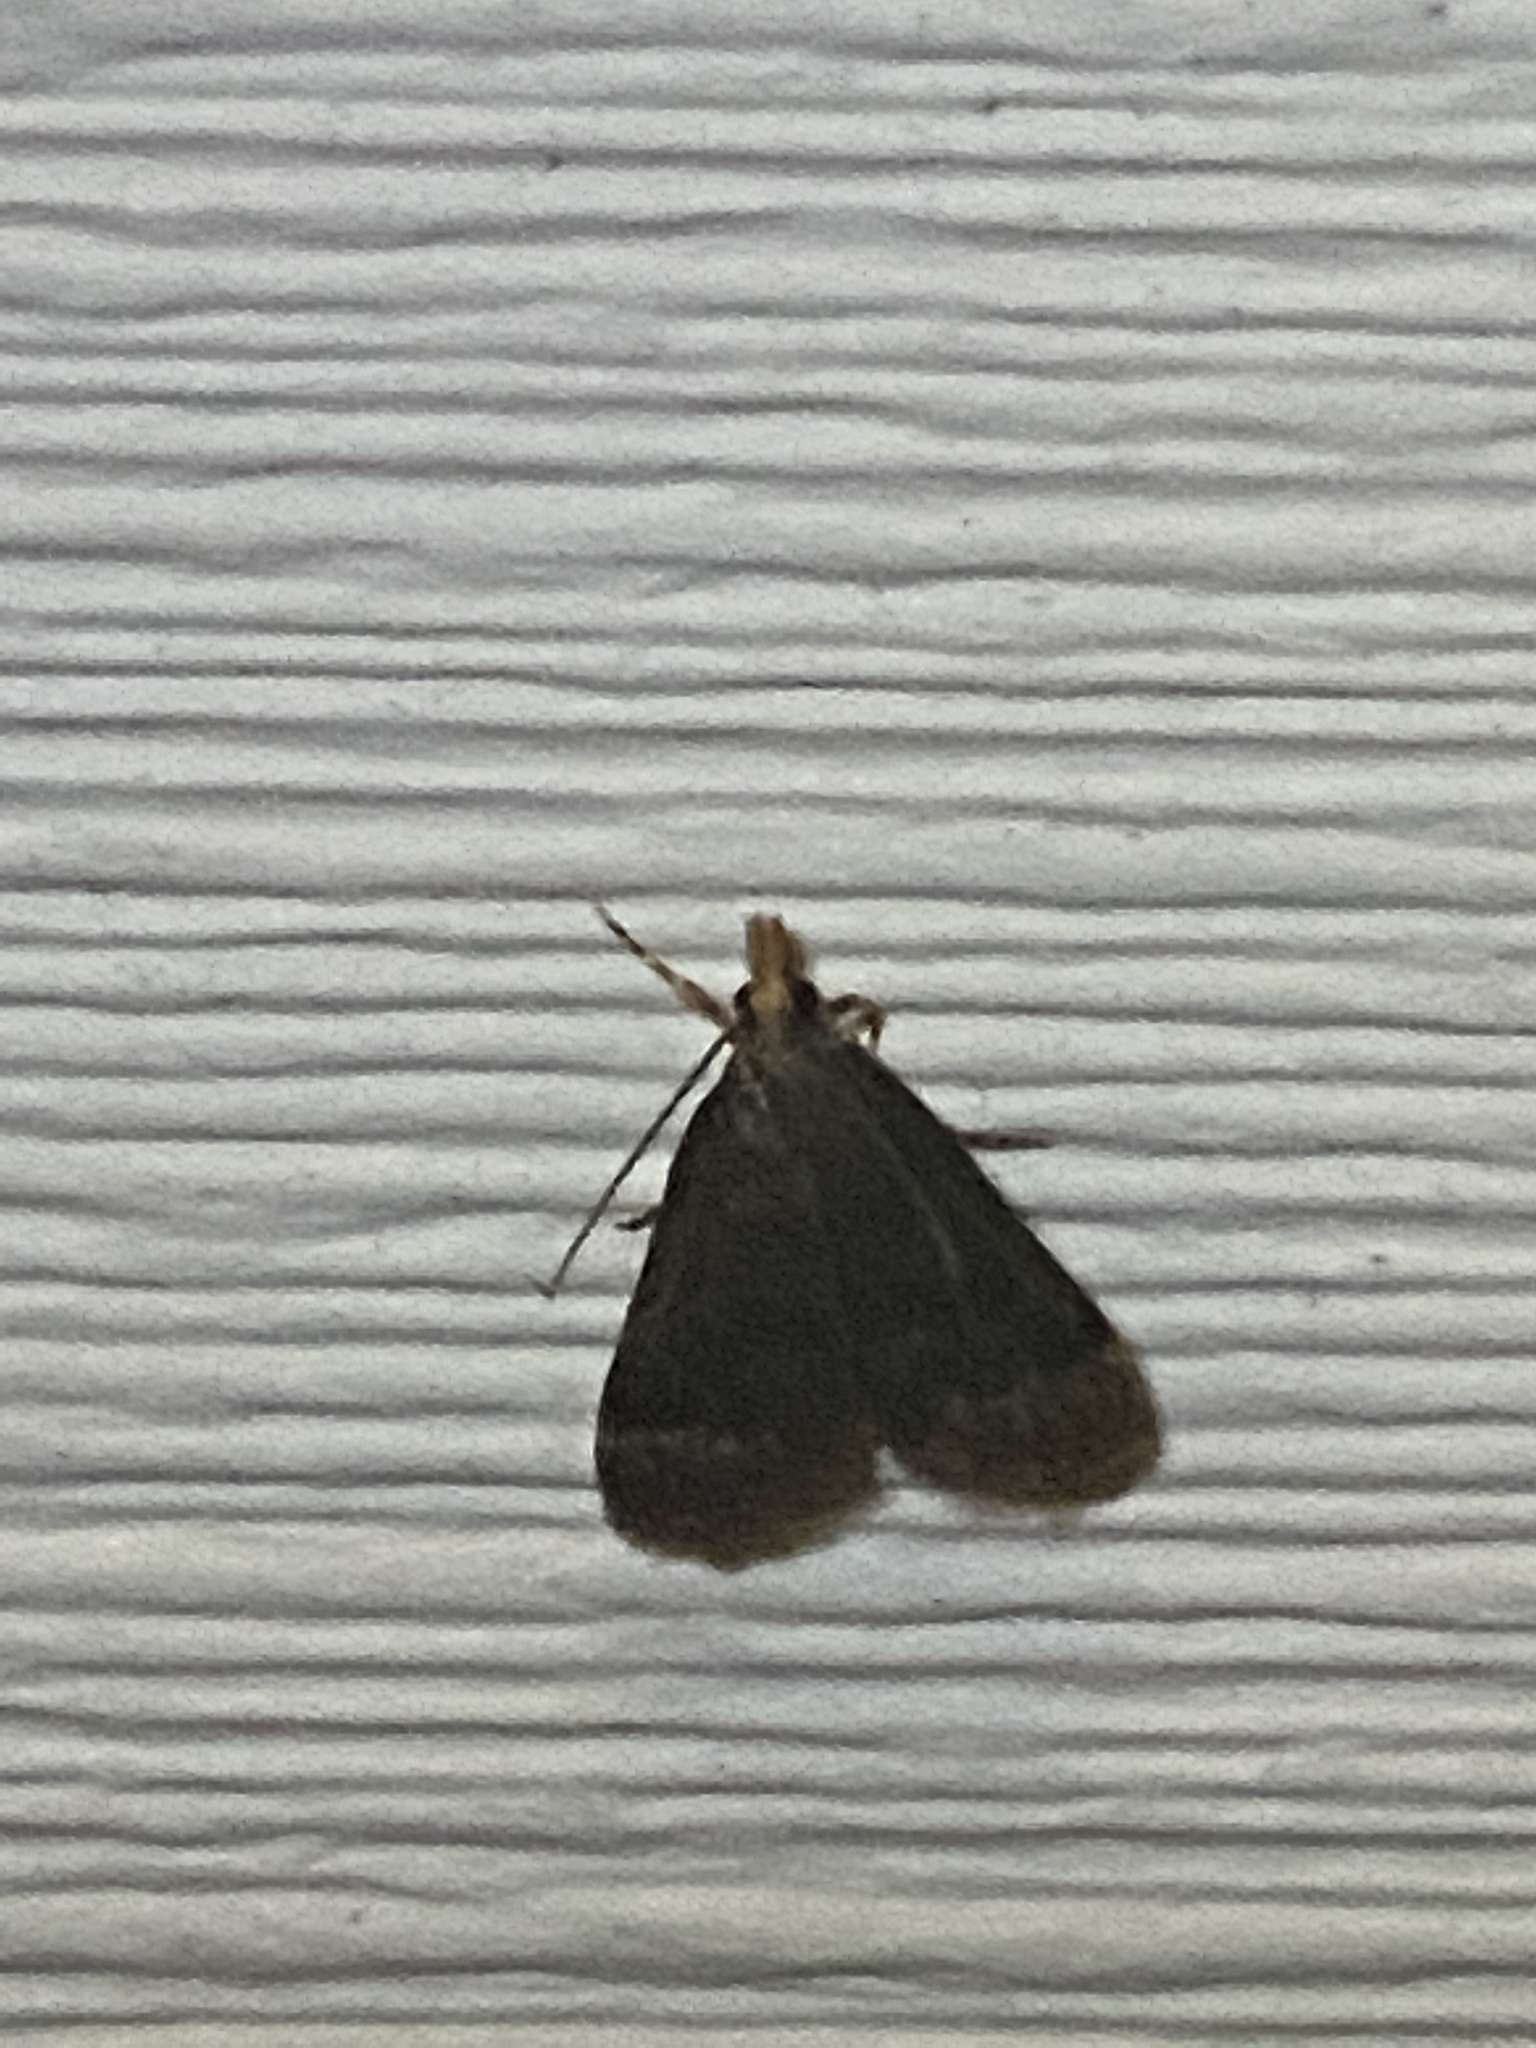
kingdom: Animalia
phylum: Arthropoda
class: Insecta
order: Lepidoptera
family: Crambidae
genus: Pyrausta
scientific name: Pyrausta merrickalis
